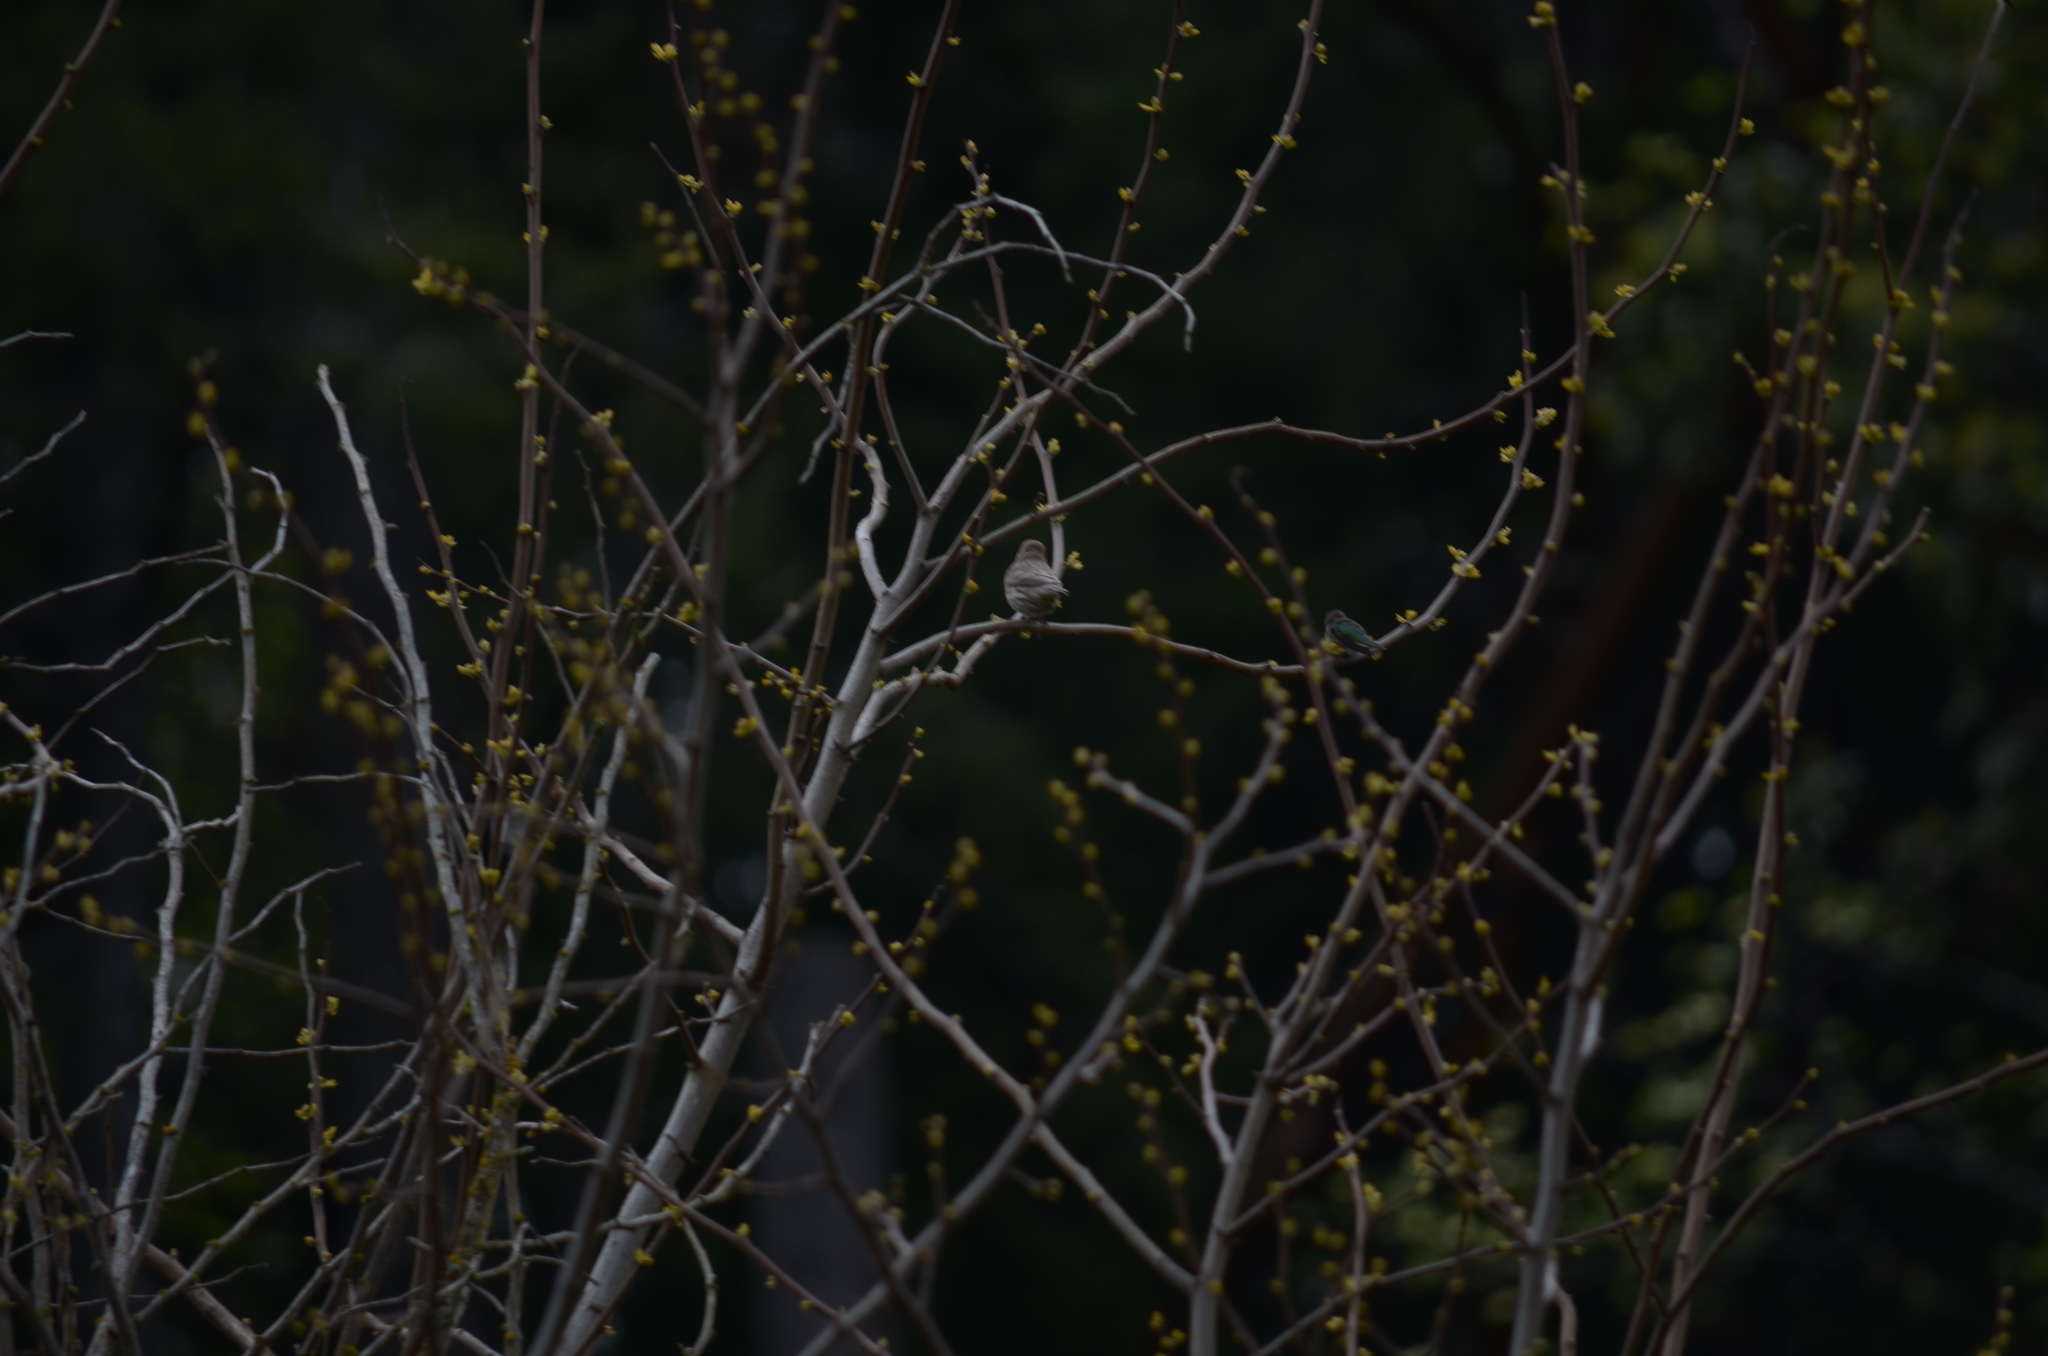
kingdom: Animalia
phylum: Chordata
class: Aves
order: Passeriformes
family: Fringillidae
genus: Haemorhous
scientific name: Haemorhous mexicanus
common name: House finch
